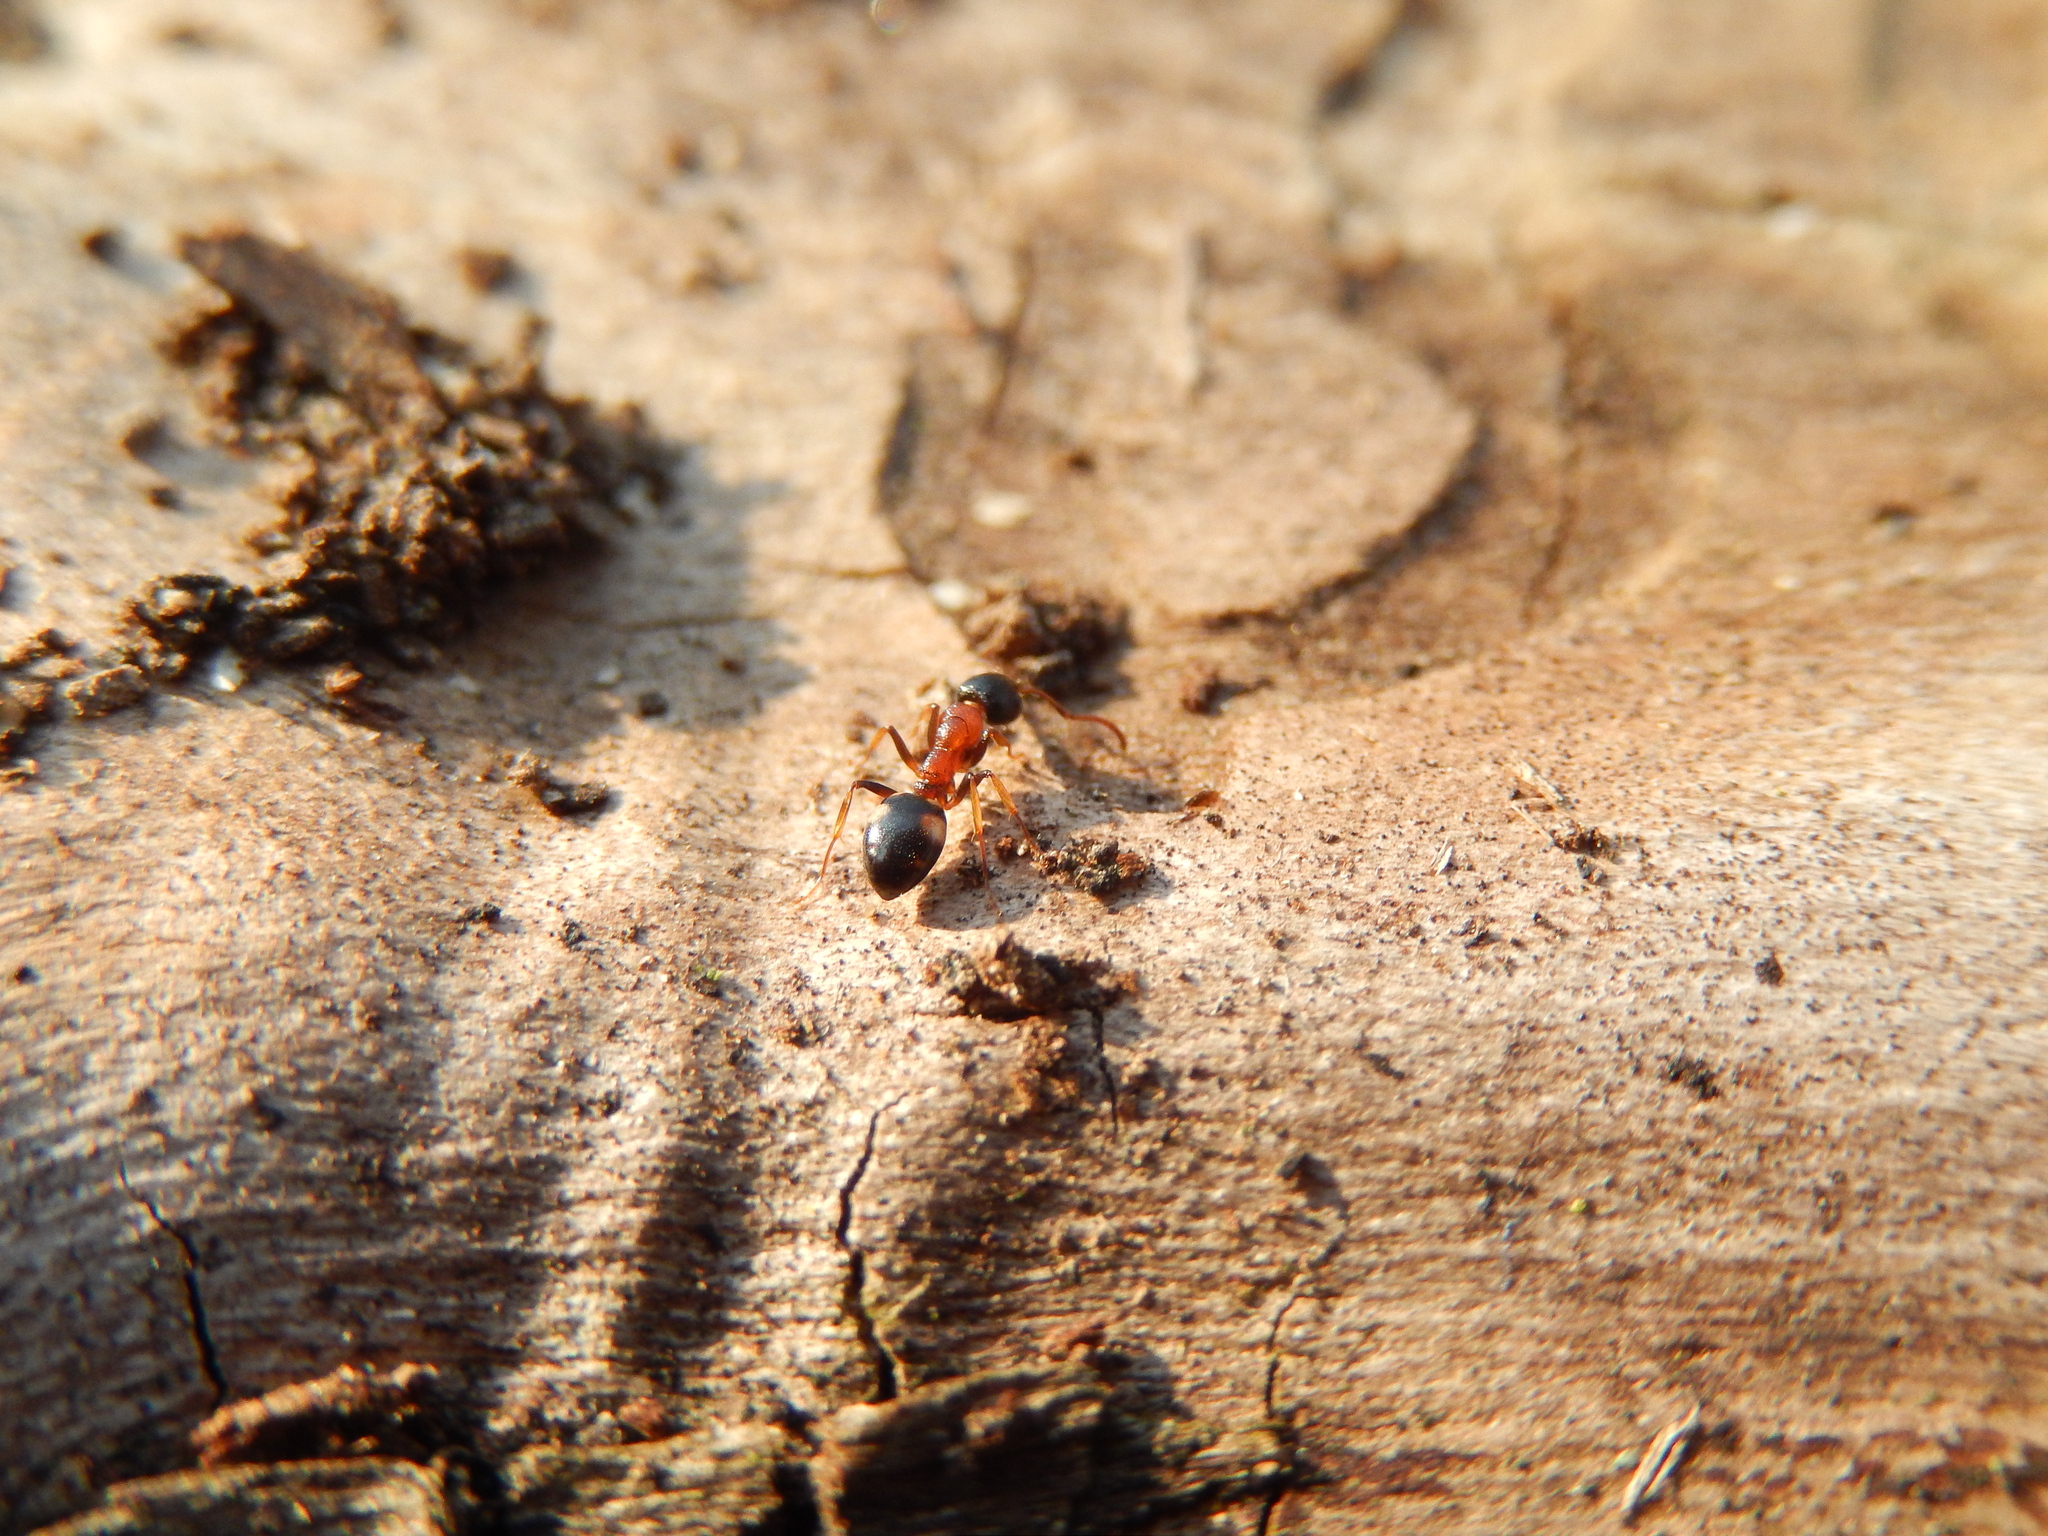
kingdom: Animalia
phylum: Arthropoda
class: Insecta
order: Hymenoptera
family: Formicidae
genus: Dolichoderus
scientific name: Dolichoderus quadripunctatus
